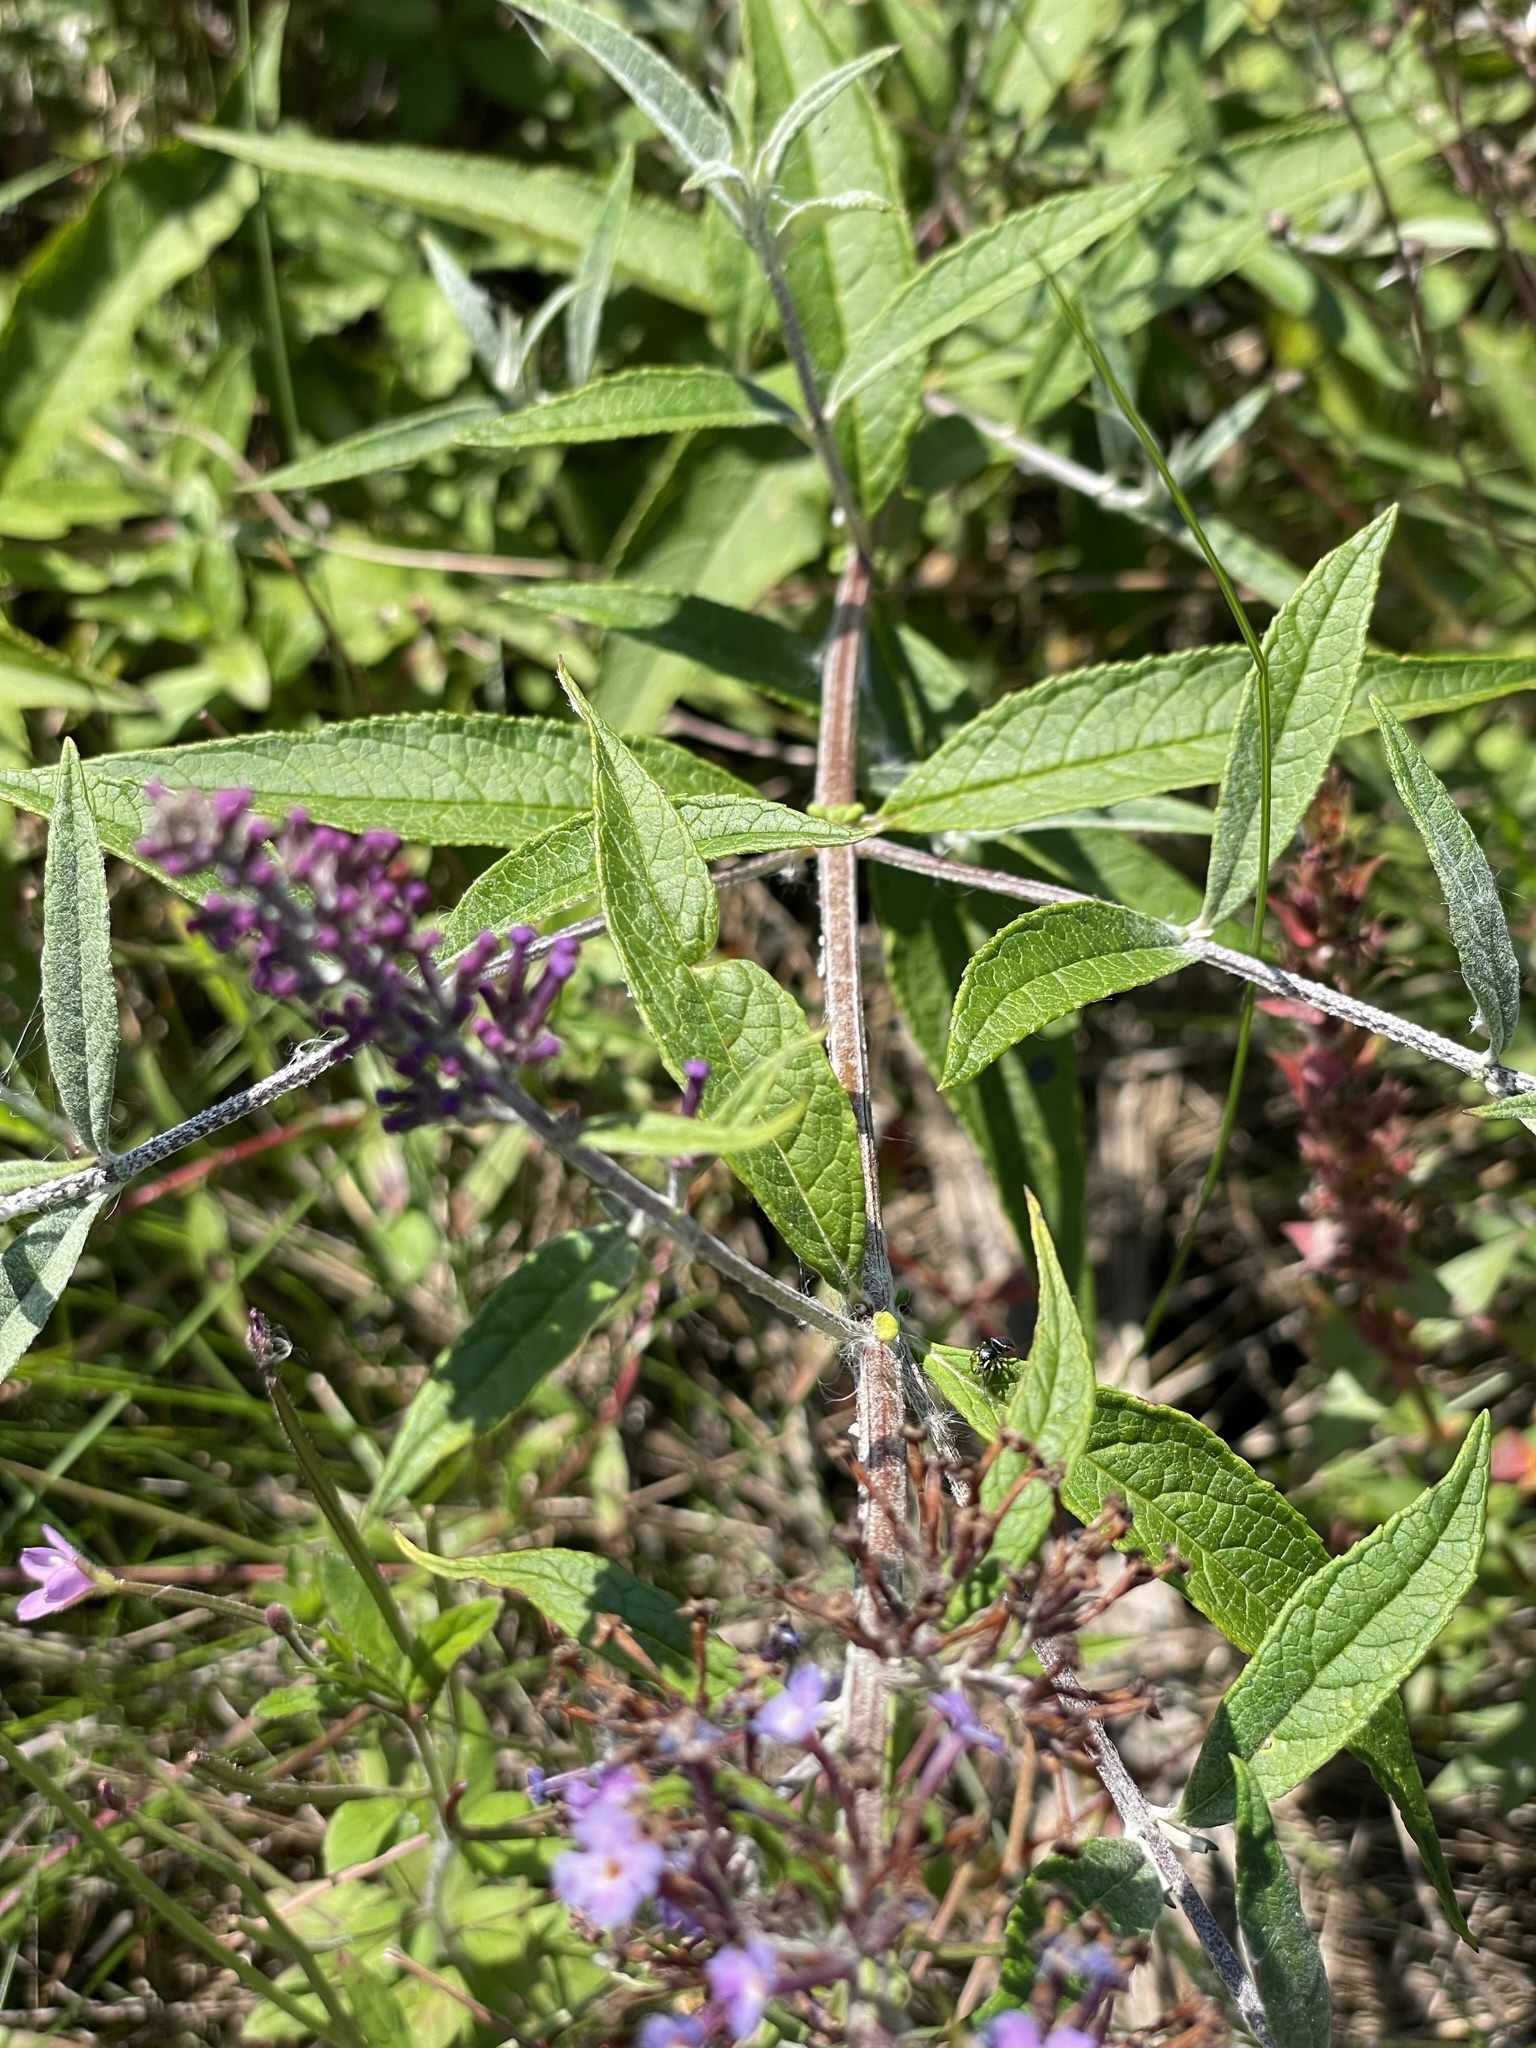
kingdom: Plantae
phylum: Tracheophyta
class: Magnoliopsida
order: Lamiales
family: Scrophulariaceae
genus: Buddleja
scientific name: Buddleja davidii
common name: Butterfly-bush
